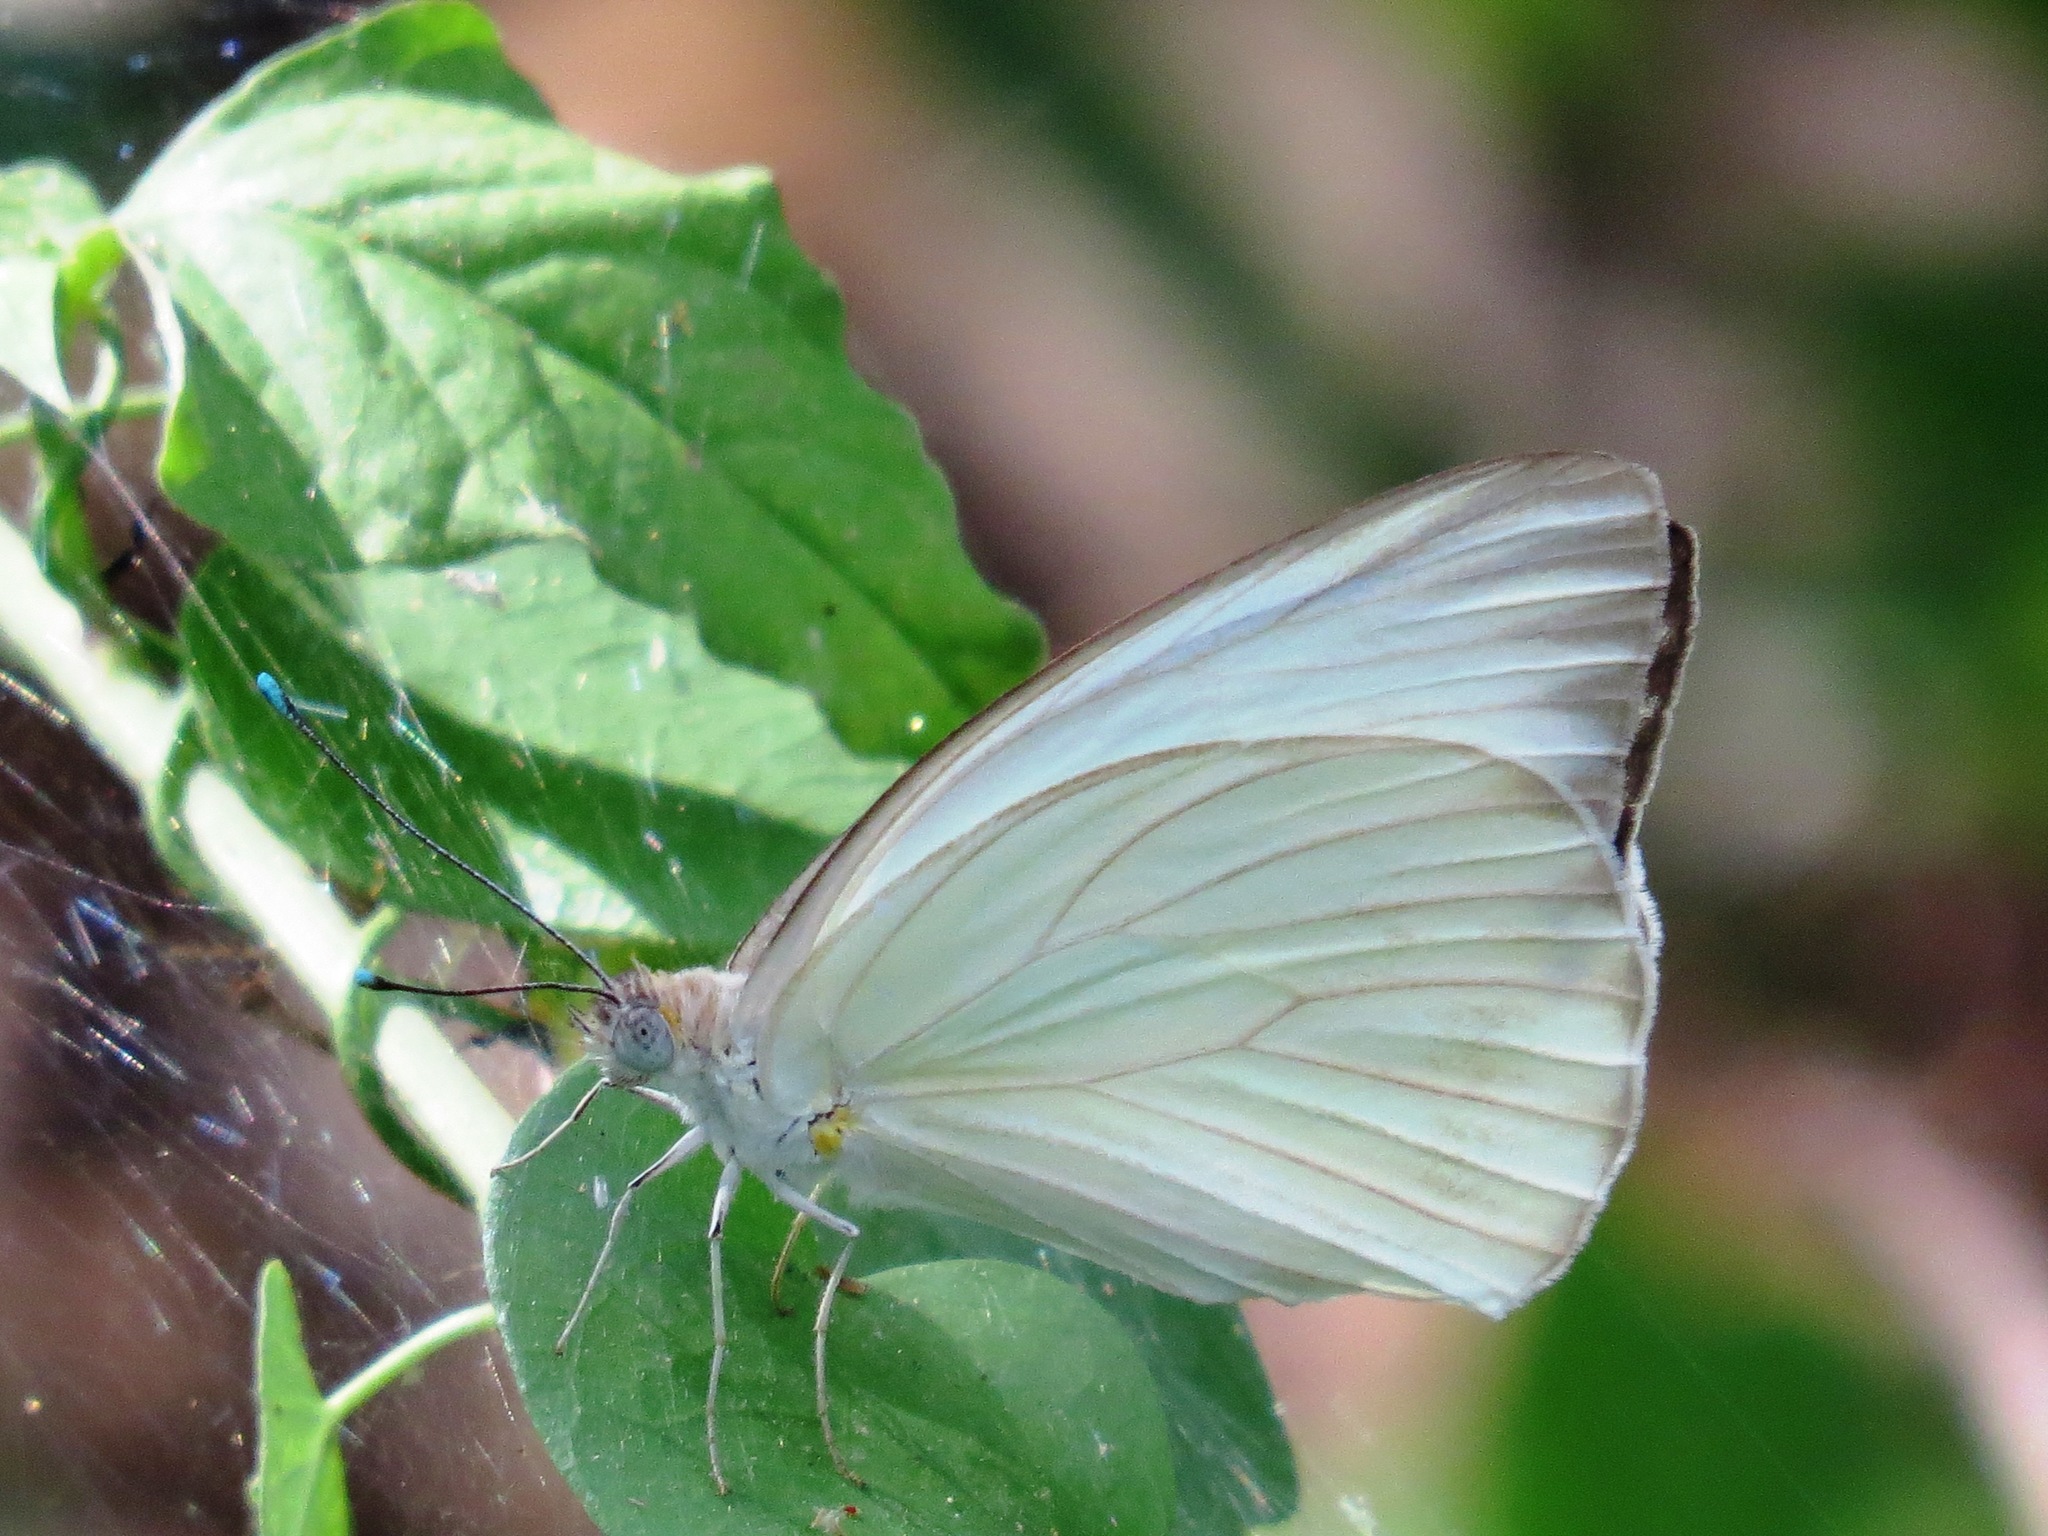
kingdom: Animalia
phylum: Arthropoda
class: Insecta
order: Lepidoptera
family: Pieridae
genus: Ascia
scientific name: Ascia monuste
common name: Great southern white
